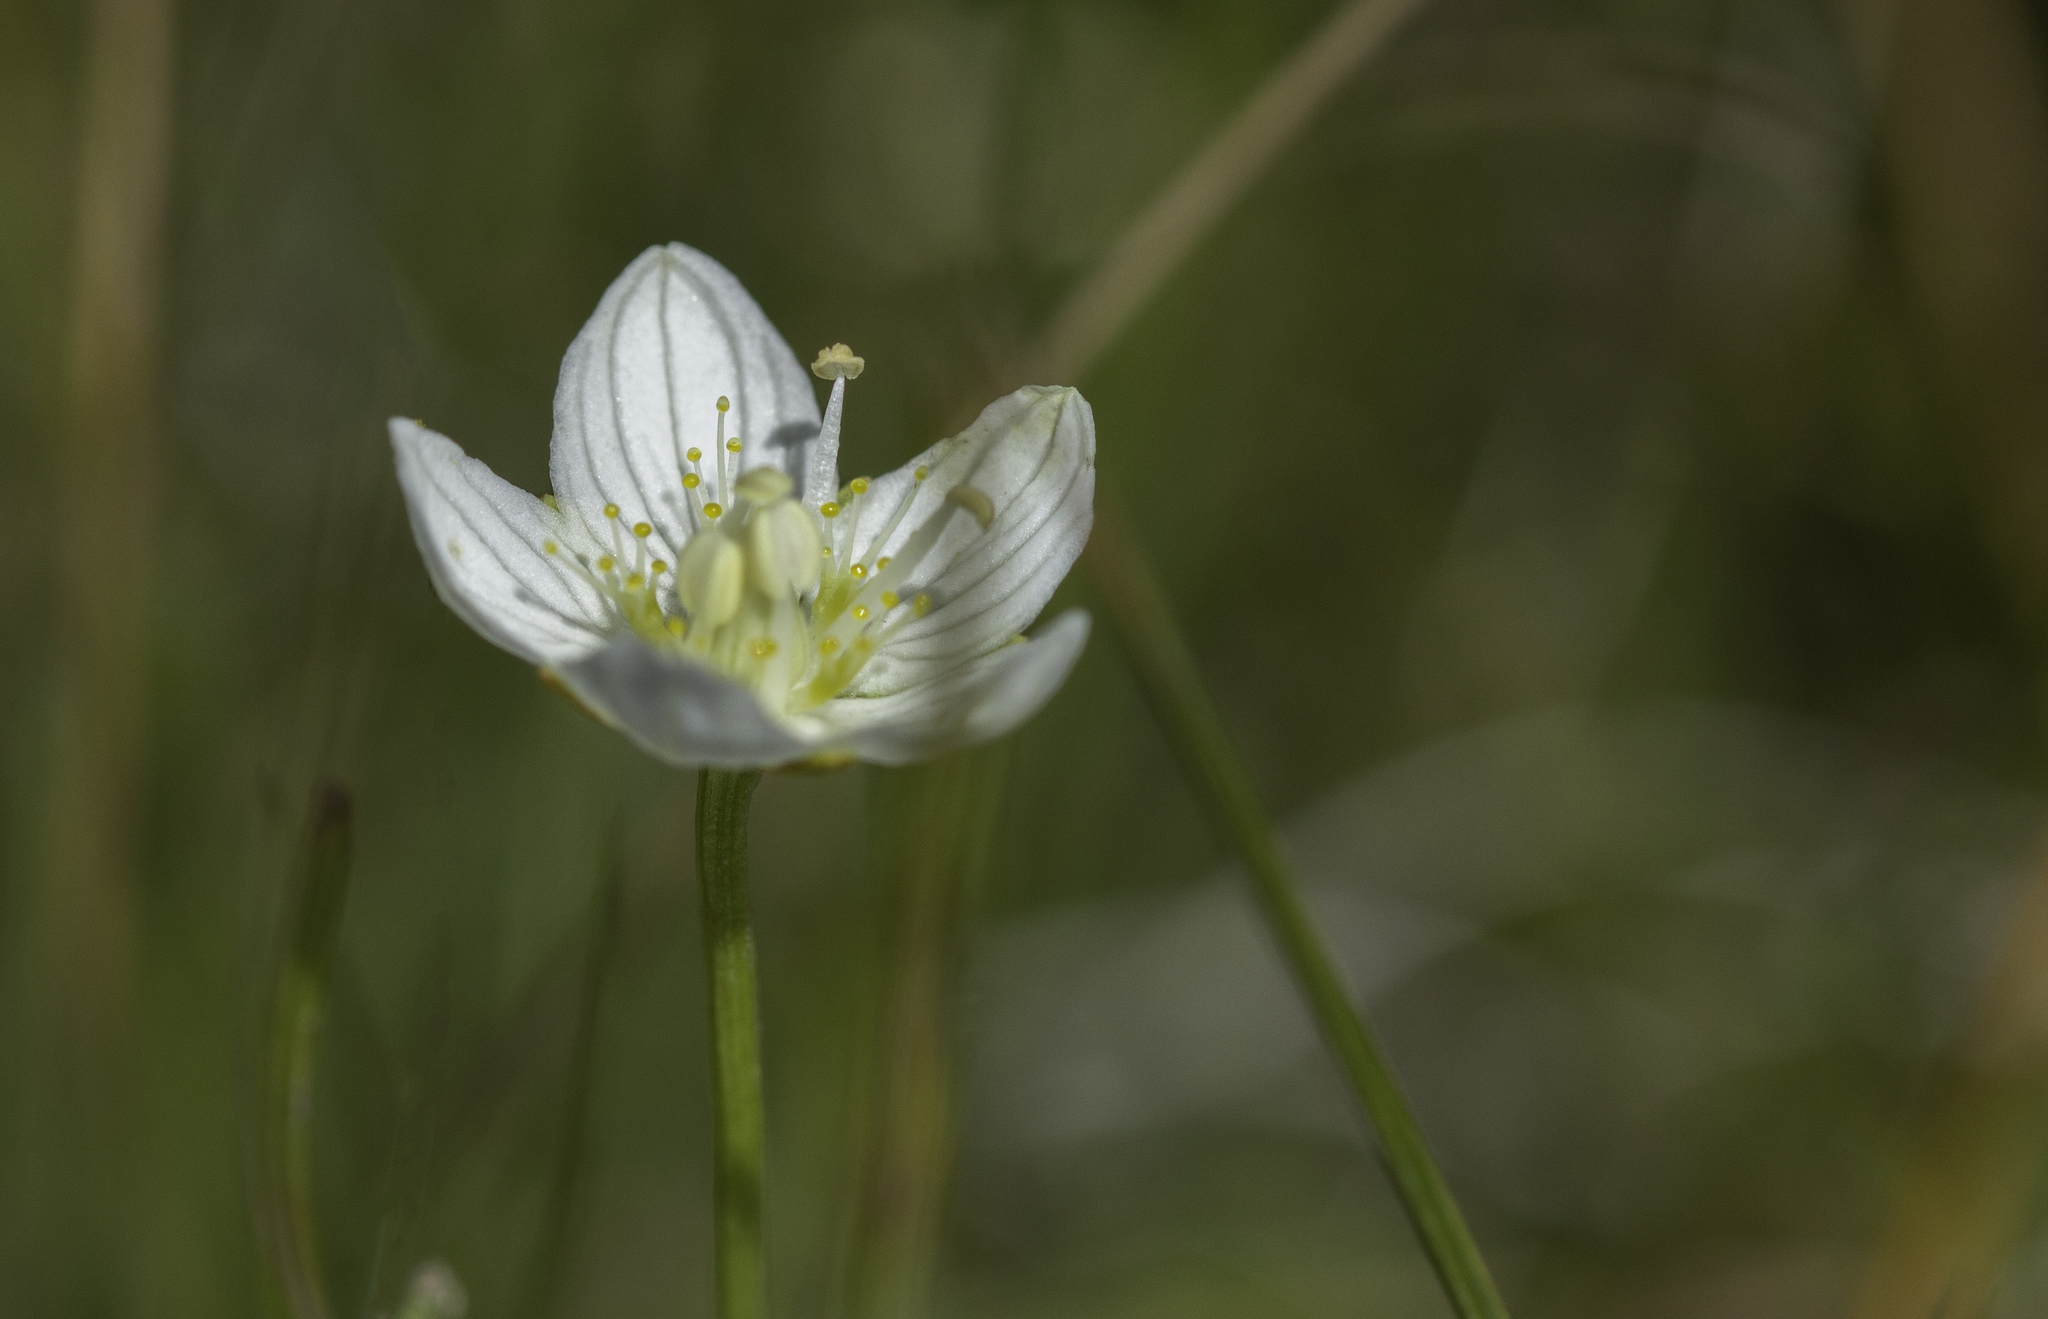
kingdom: Plantae
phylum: Tracheophyta
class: Magnoliopsida
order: Celastrales
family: Parnassiaceae
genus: Parnassia
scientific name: Parnassia palustris
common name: Grass-of-parnassus
